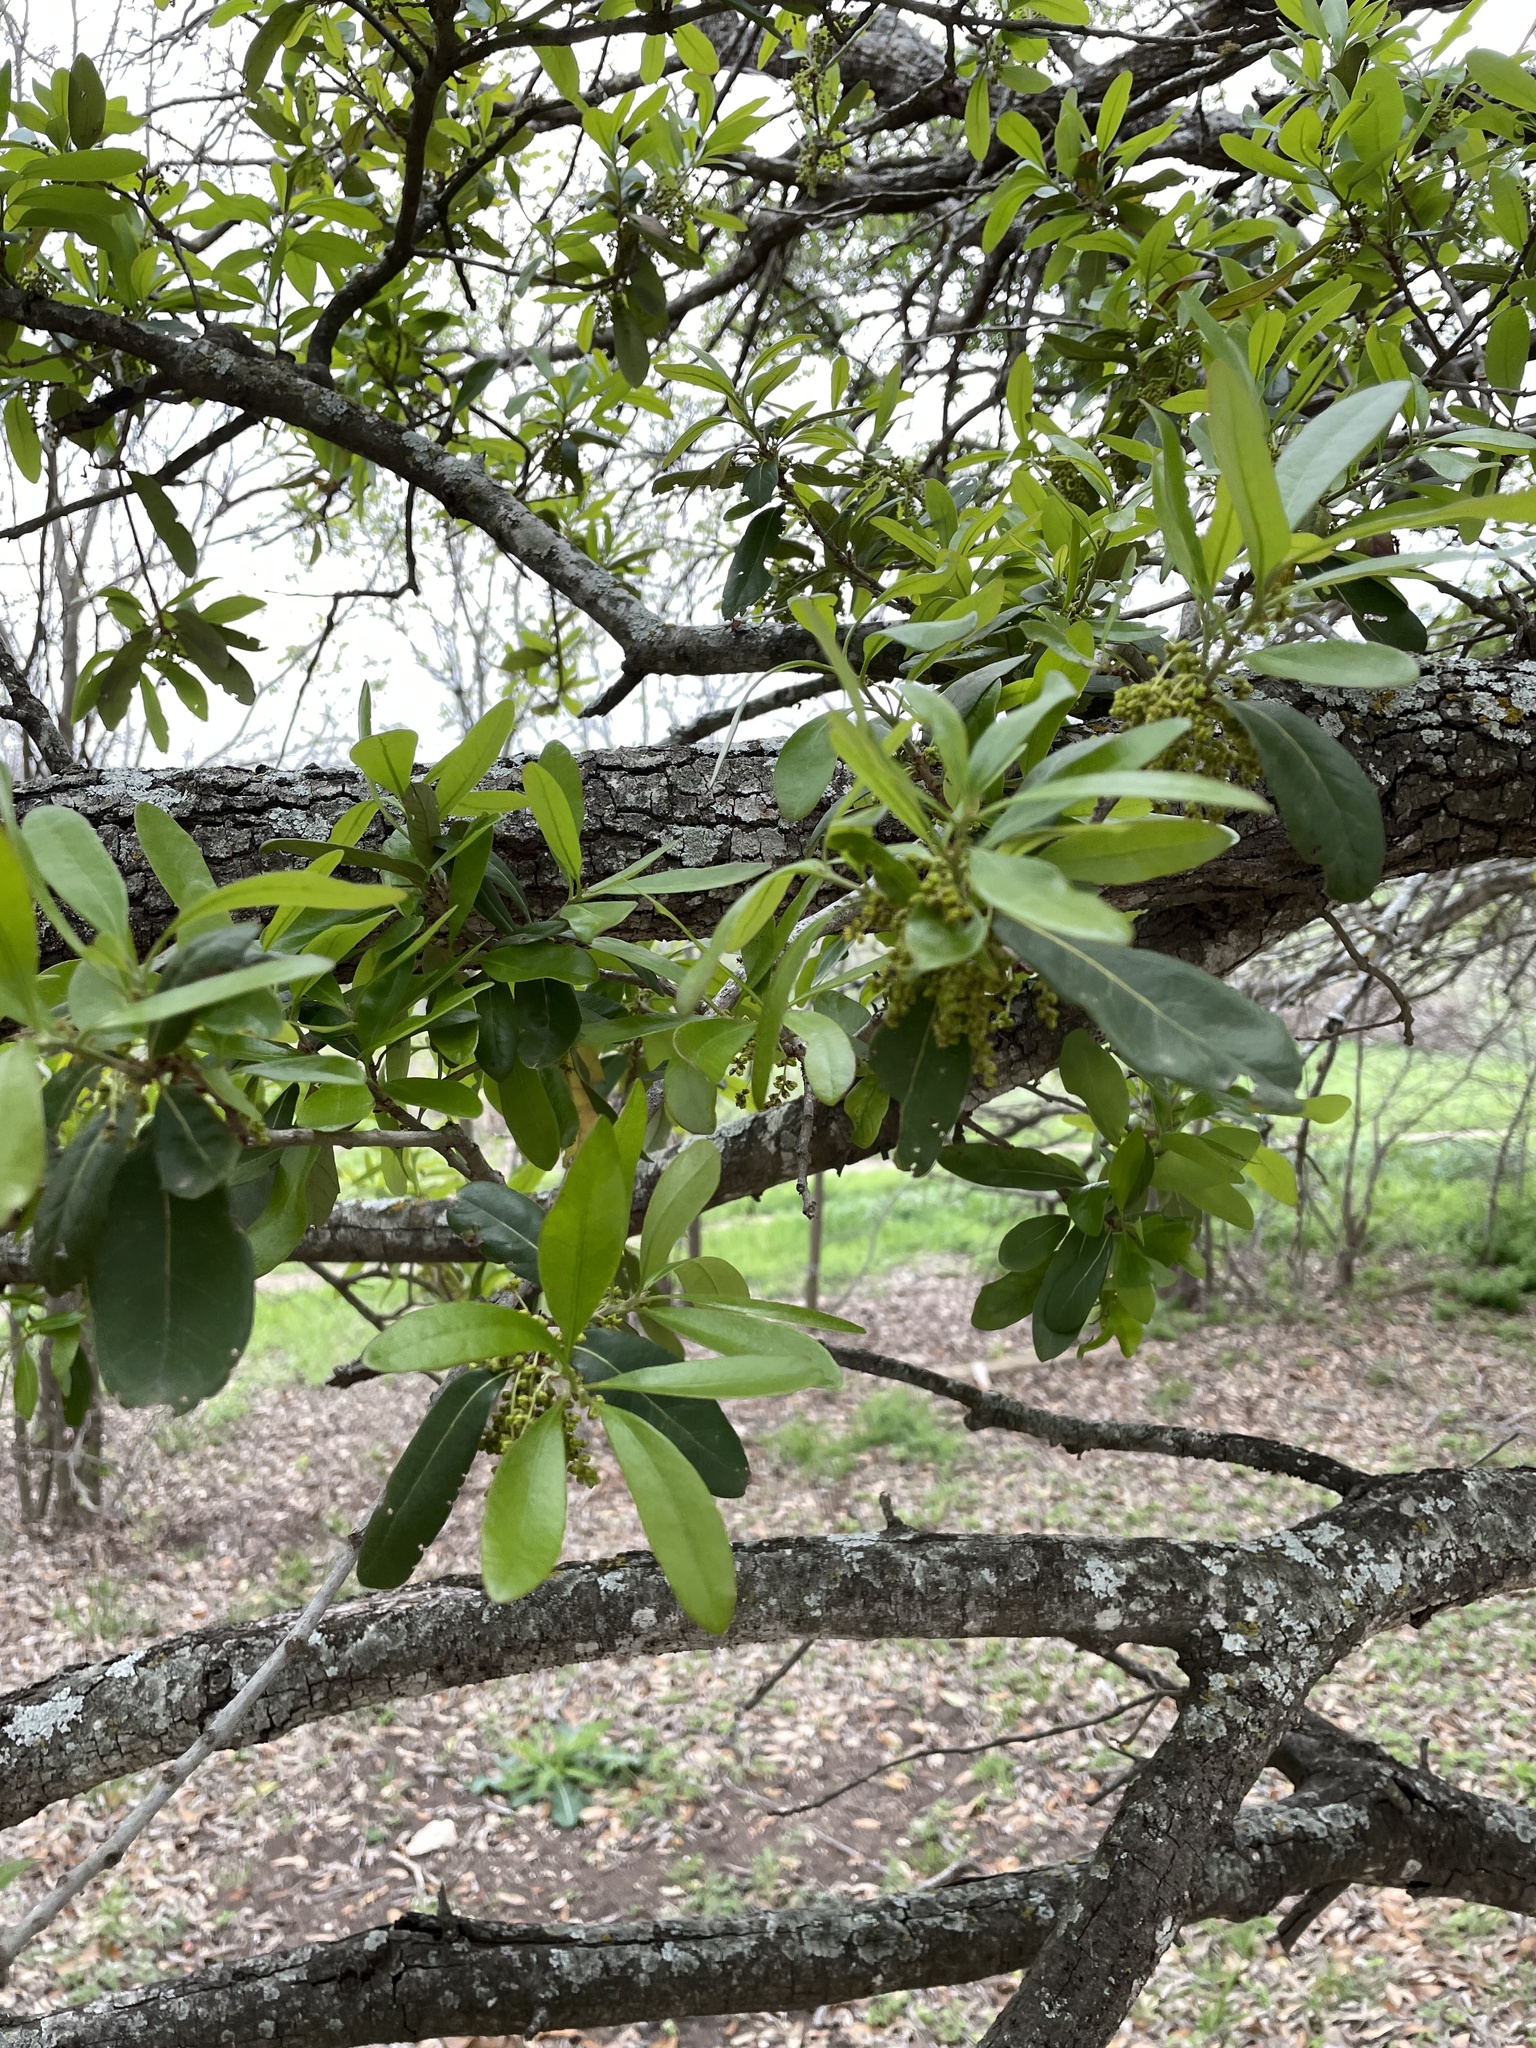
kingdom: Plantae
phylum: Tracheophyta
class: Magnoliopsida
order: Fagales
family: Fagaceae
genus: Quercus
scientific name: Quercus virginiana
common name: Southern live oak
